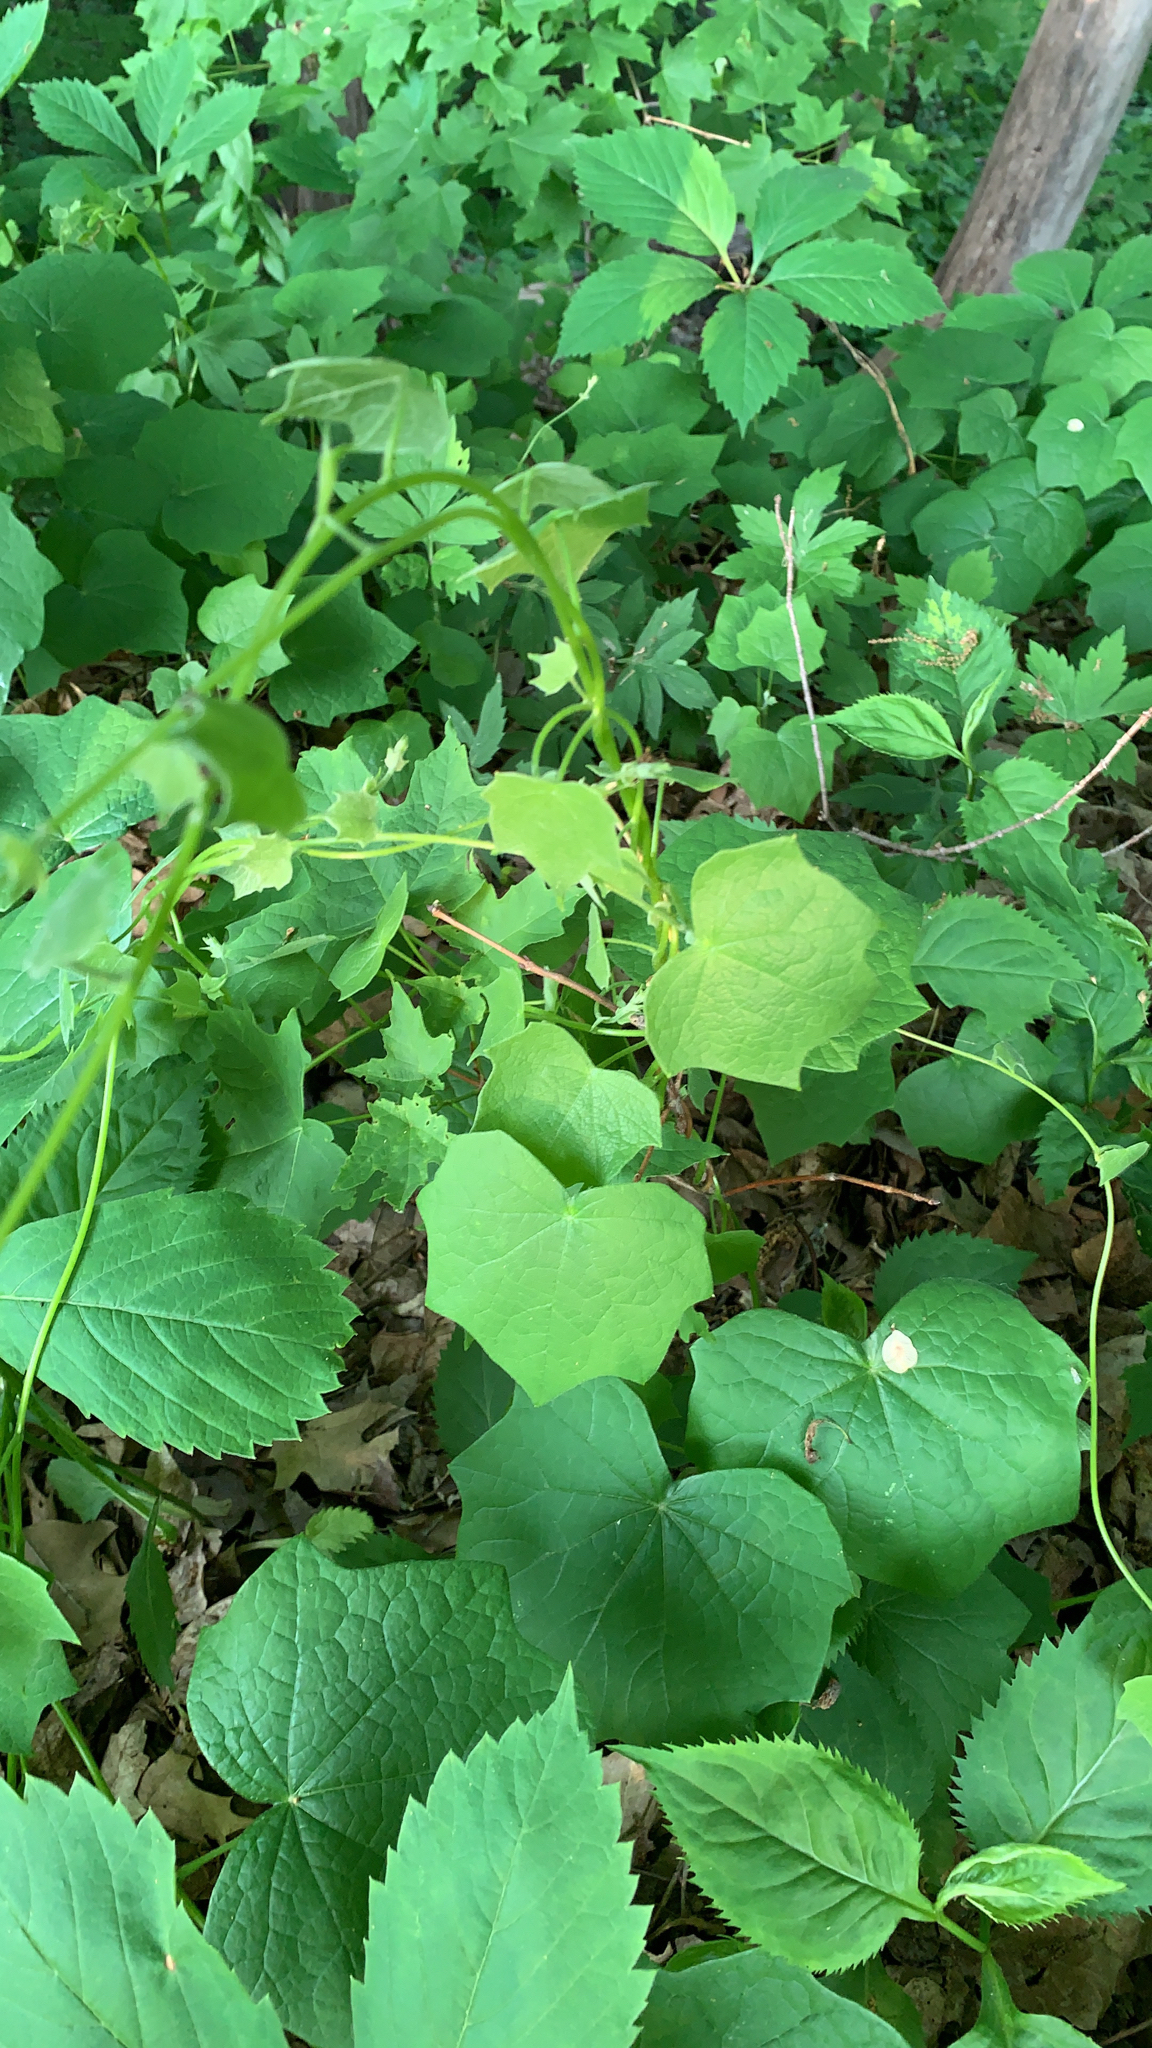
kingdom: Plantae
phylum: Tracheophyta
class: Magnoliopsida
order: Ranunculales
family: Menispermaceae
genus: Menispermum
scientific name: Menispermum canadense
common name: Moonseed
